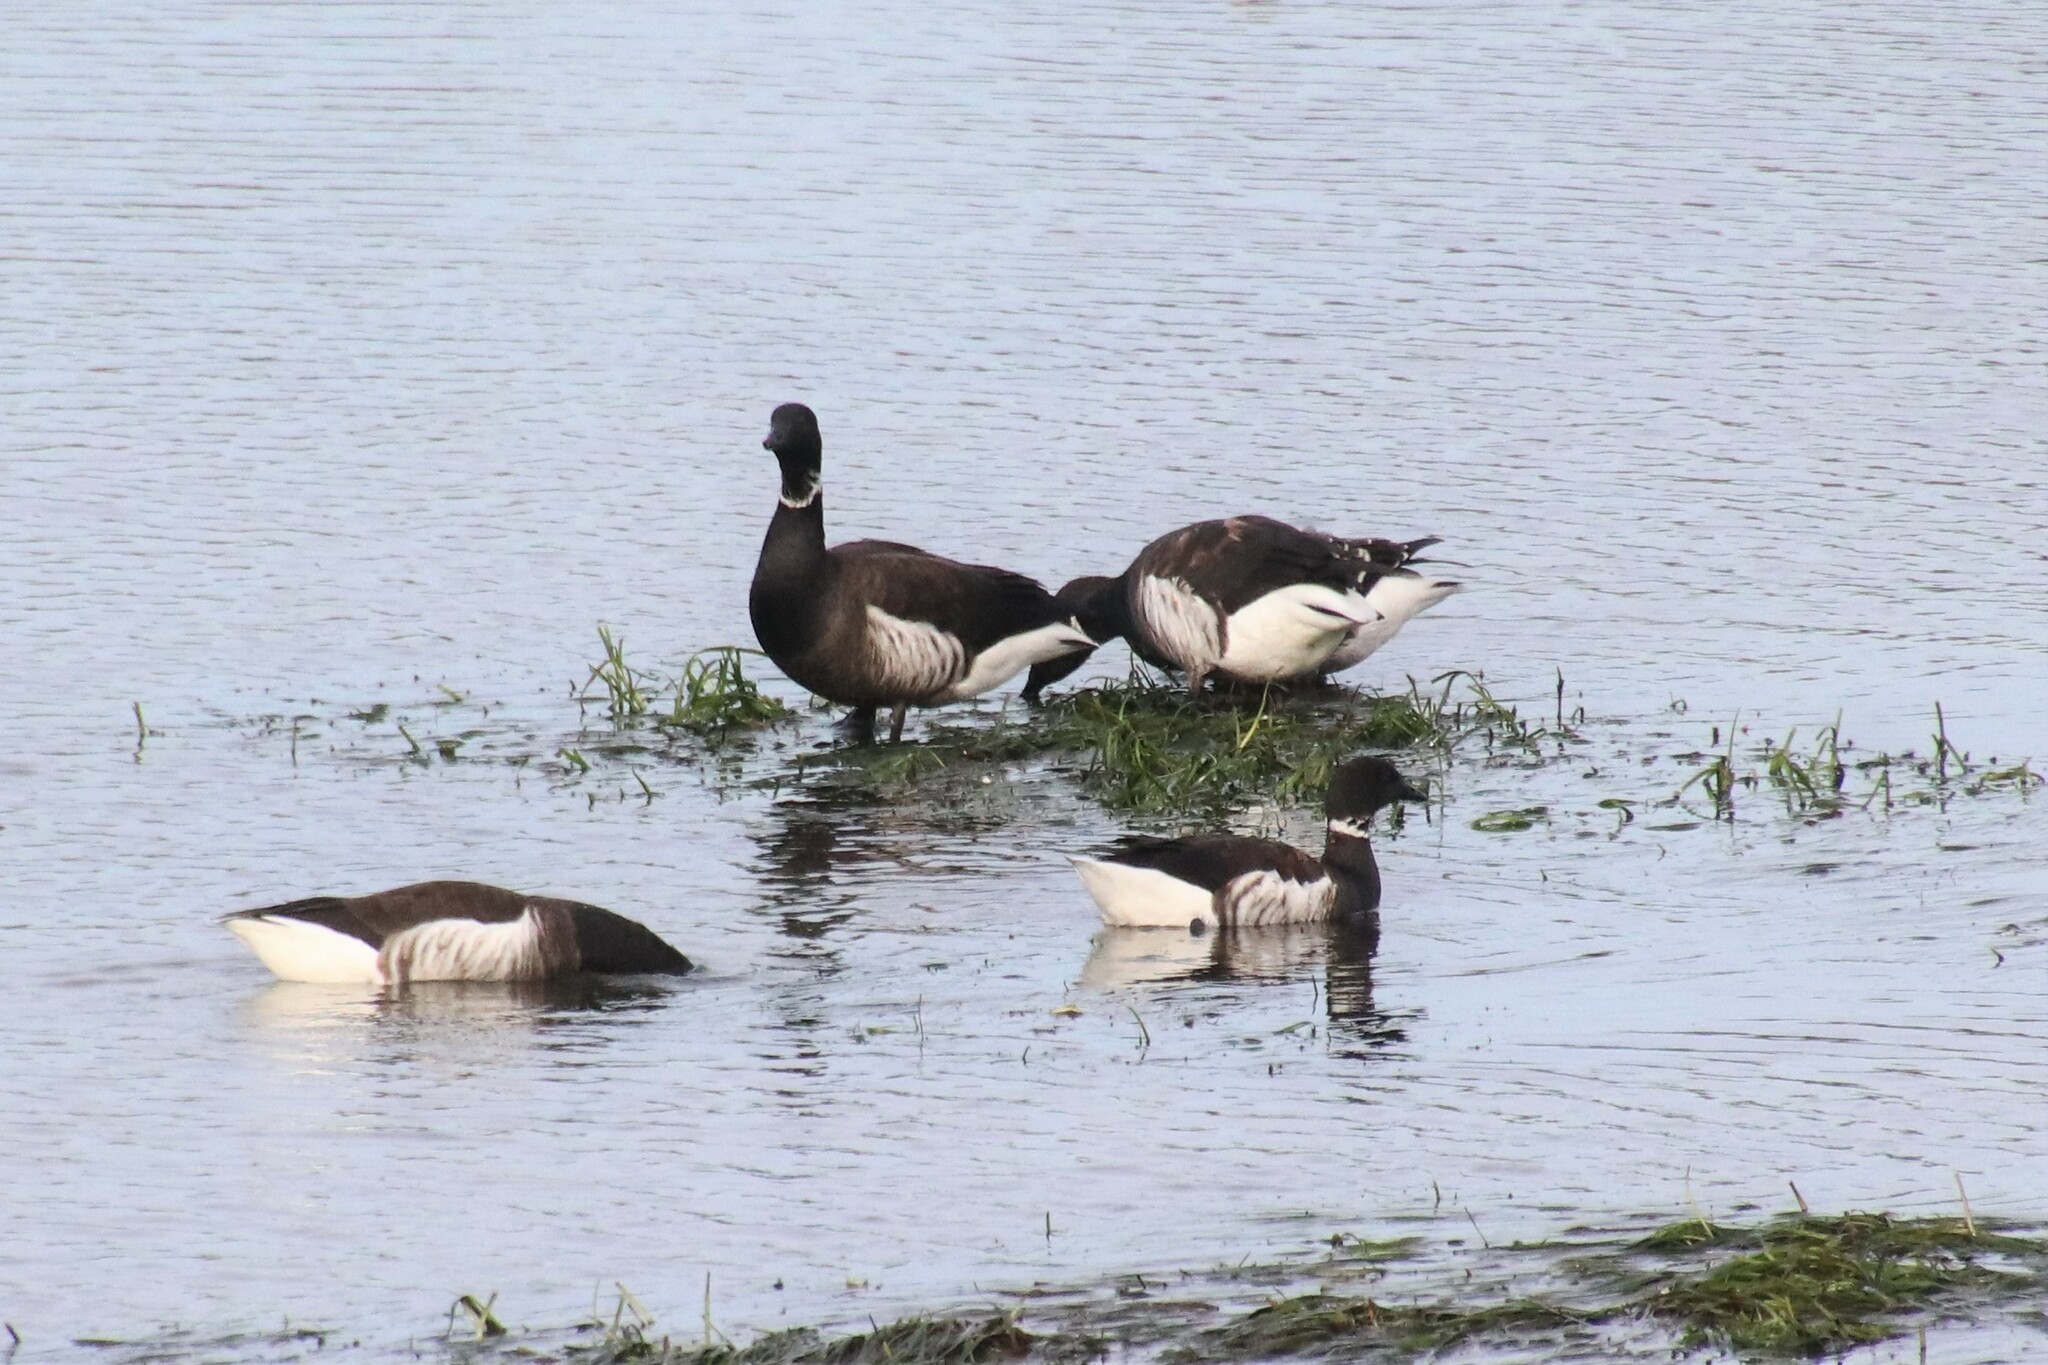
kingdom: Animalia
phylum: Chordata
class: Aves
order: Anseriformes
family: Anatidae
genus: Branta
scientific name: Branta bernicla
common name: Brant goose
